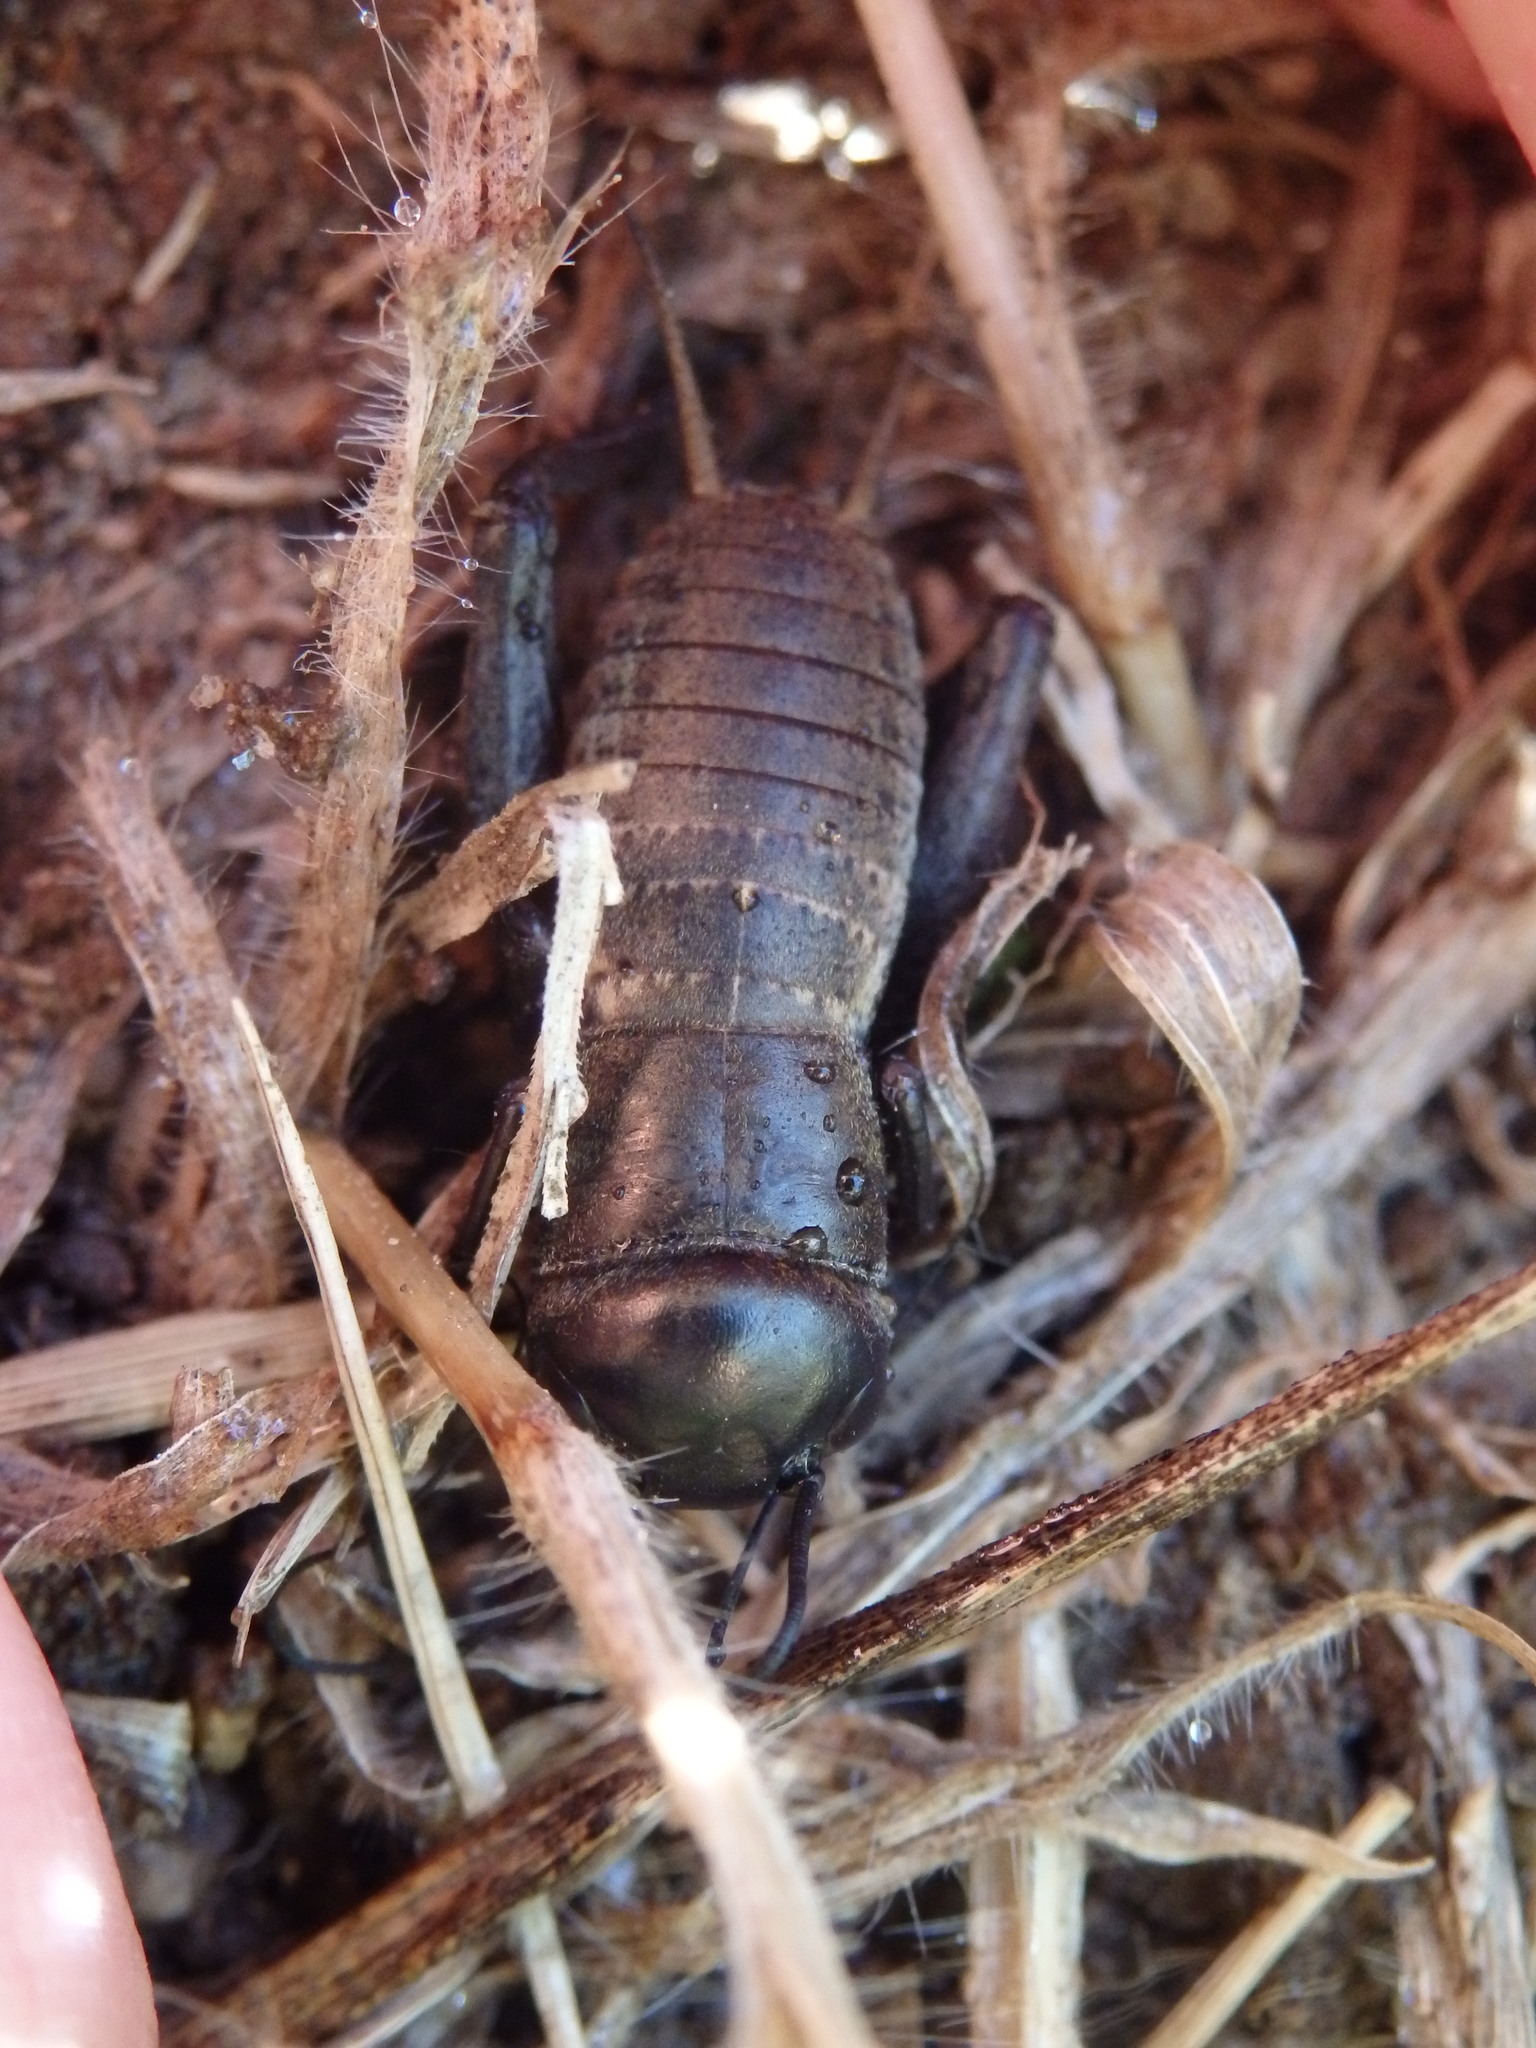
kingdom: Animalia
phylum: Arthropoda
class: Insecta
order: Orthoptera
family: Gryllidae
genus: Gryllus
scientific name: Gryllus campestris
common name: Field cricket
